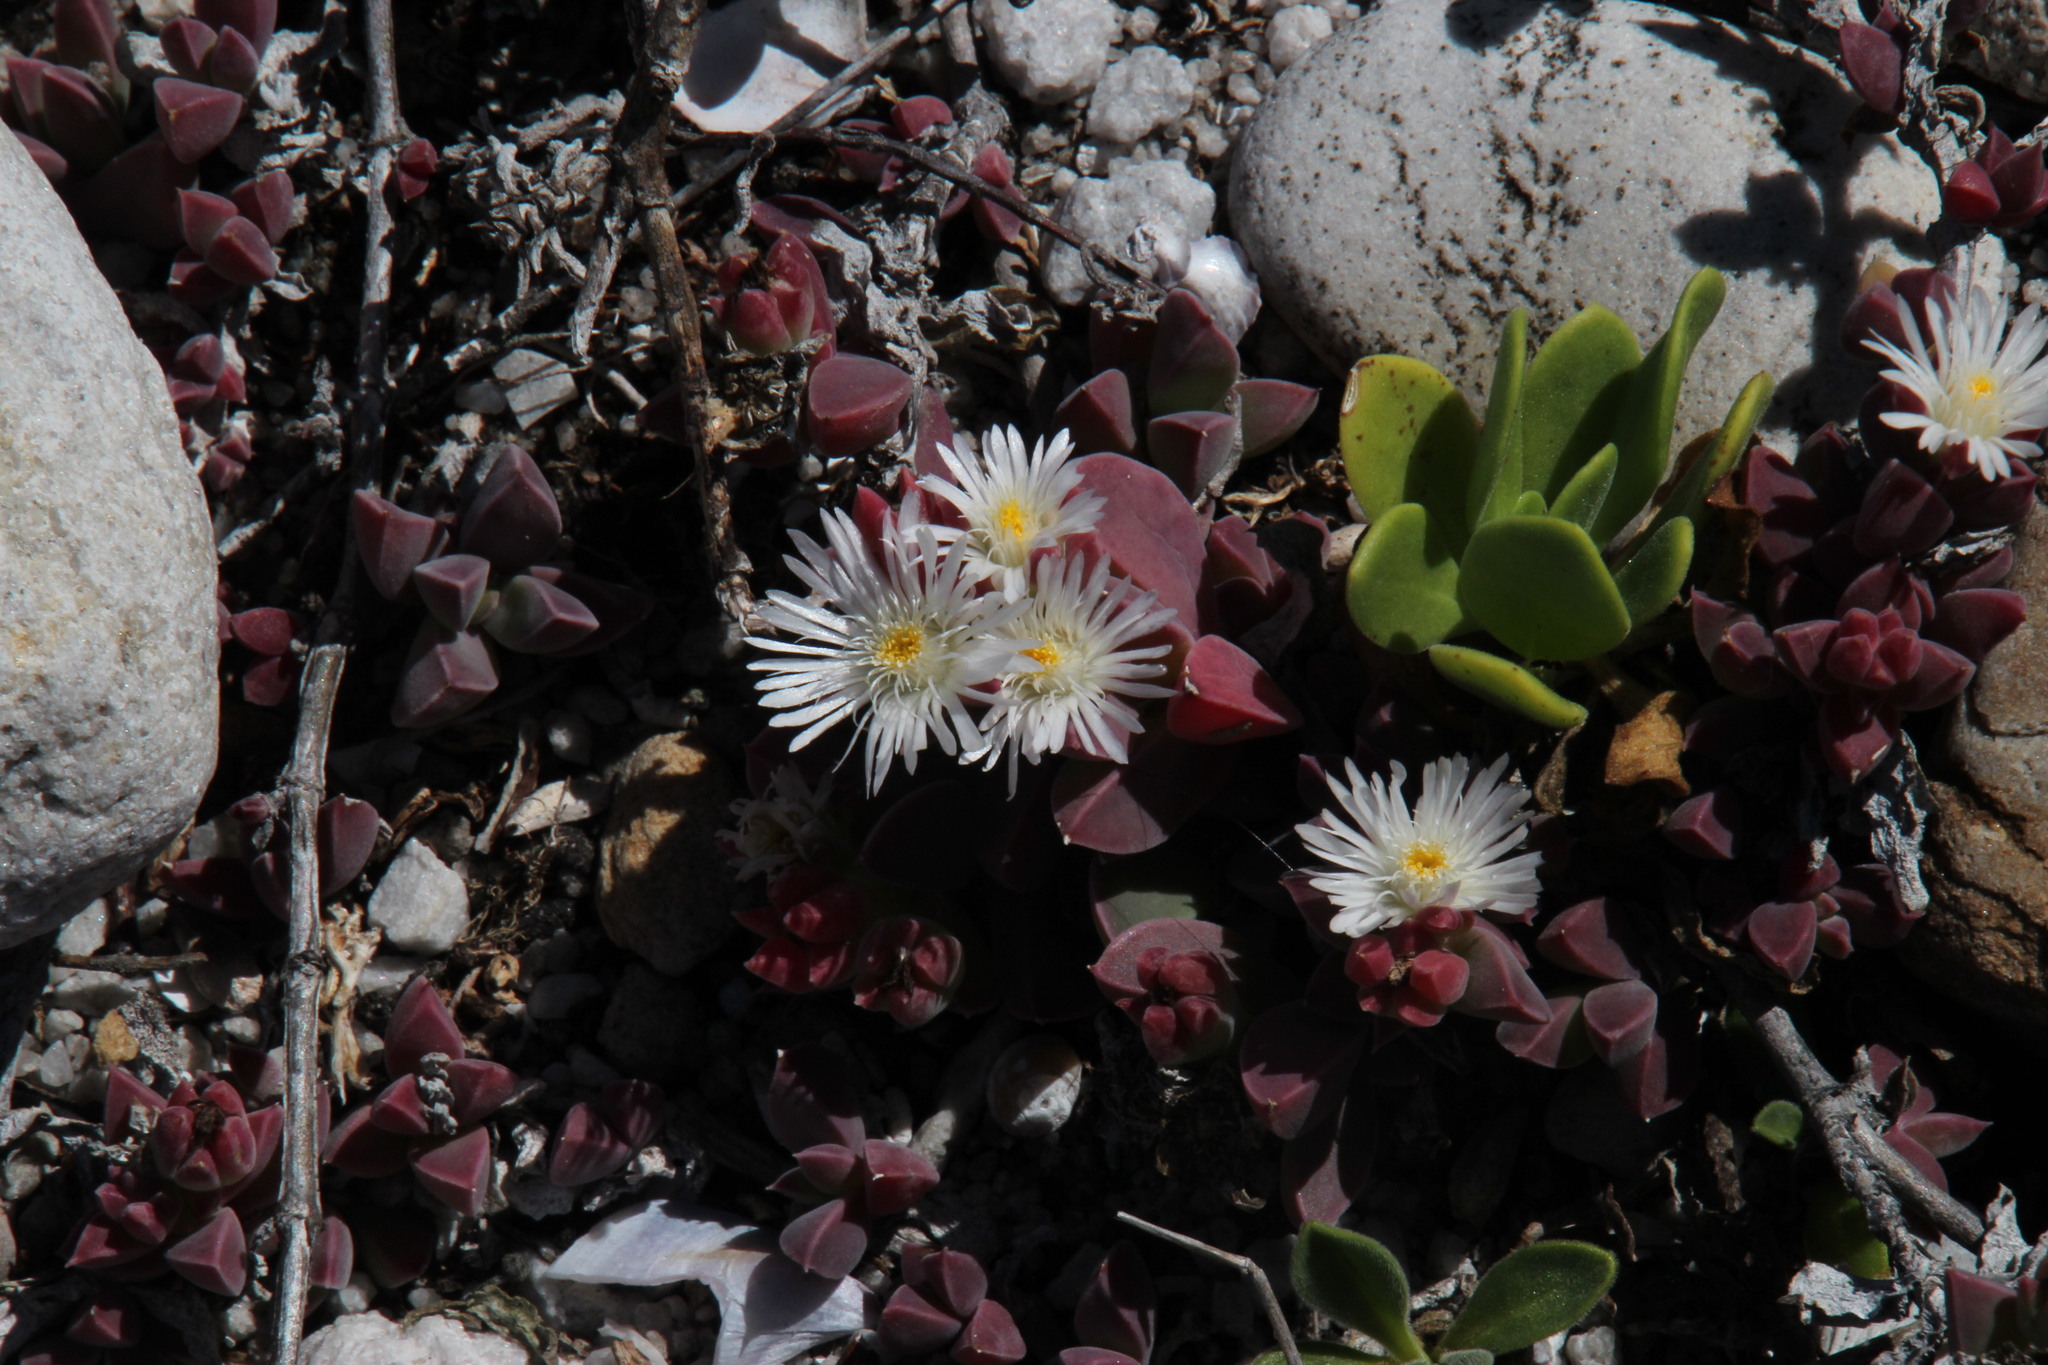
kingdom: Plantae
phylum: Tracheophyta
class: Magnoliopsida
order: Caryophyllales
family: Aizoaceae
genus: Delosperma
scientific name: Delosperma patersoniae
